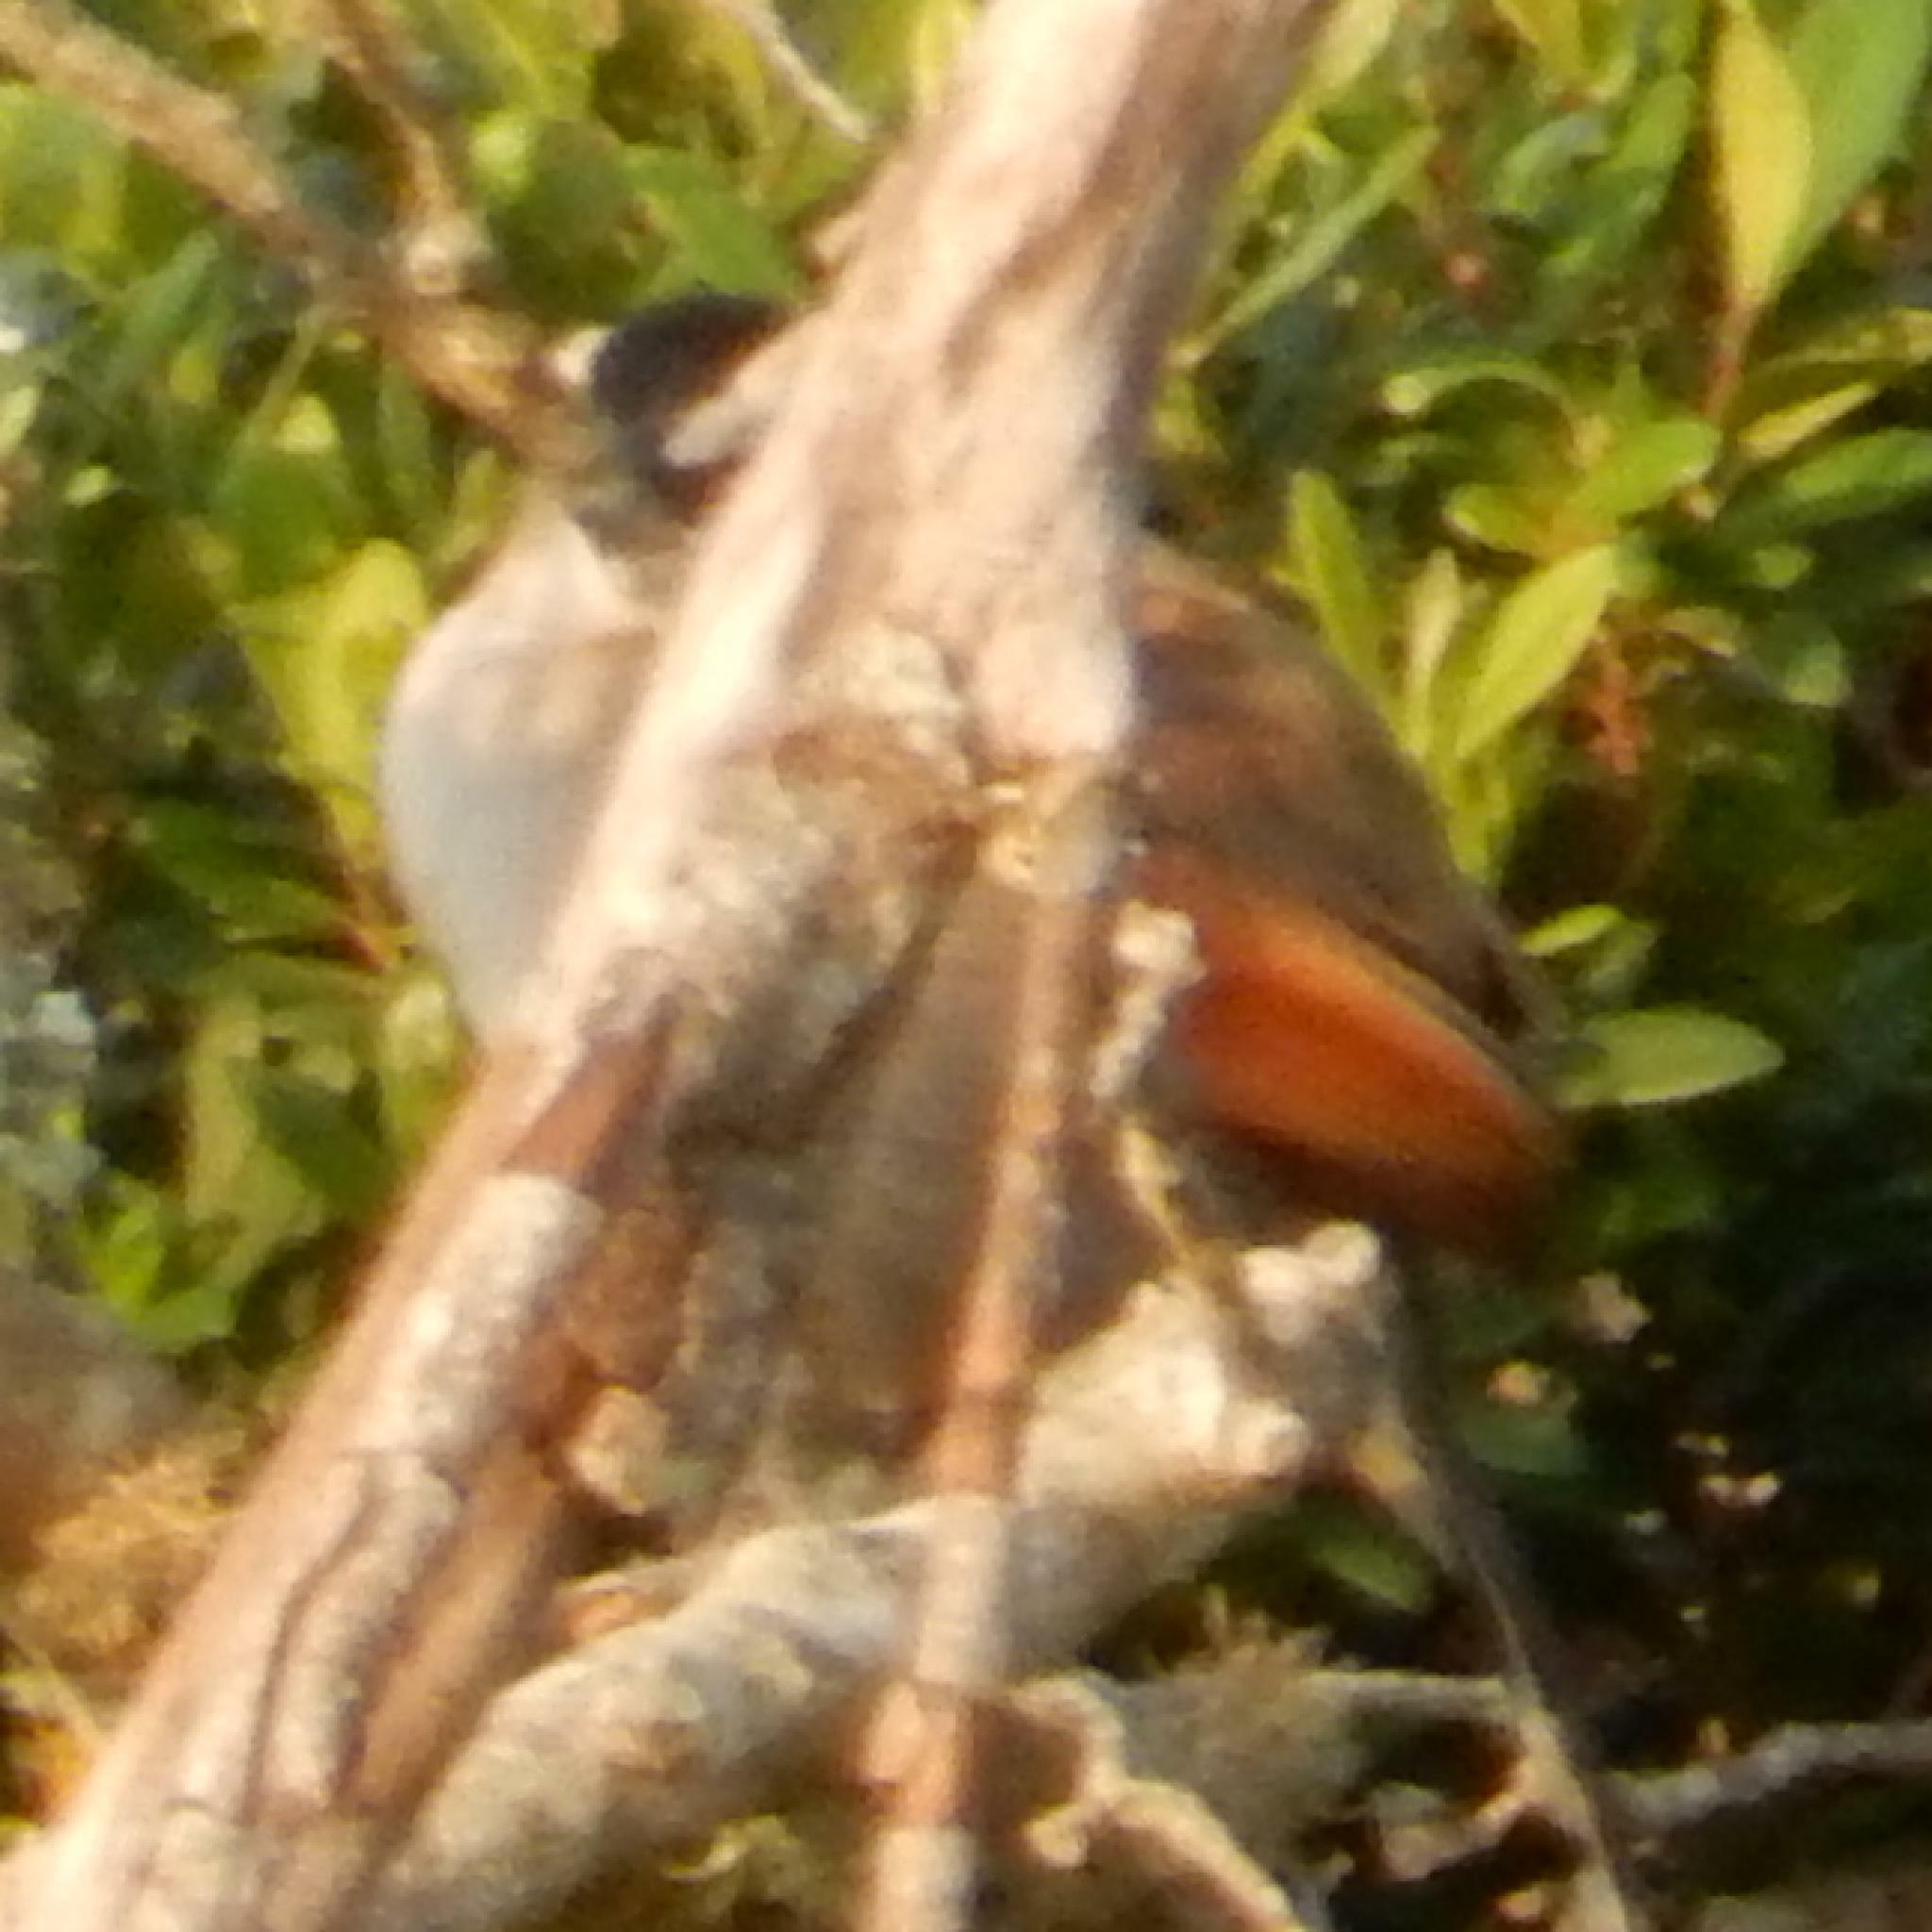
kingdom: Animalia
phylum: Chordata
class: Aves
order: Passeriformes
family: Malaconotidae
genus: Tchagra
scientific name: Tchagra senegalus
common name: Black-crowned tchagra
